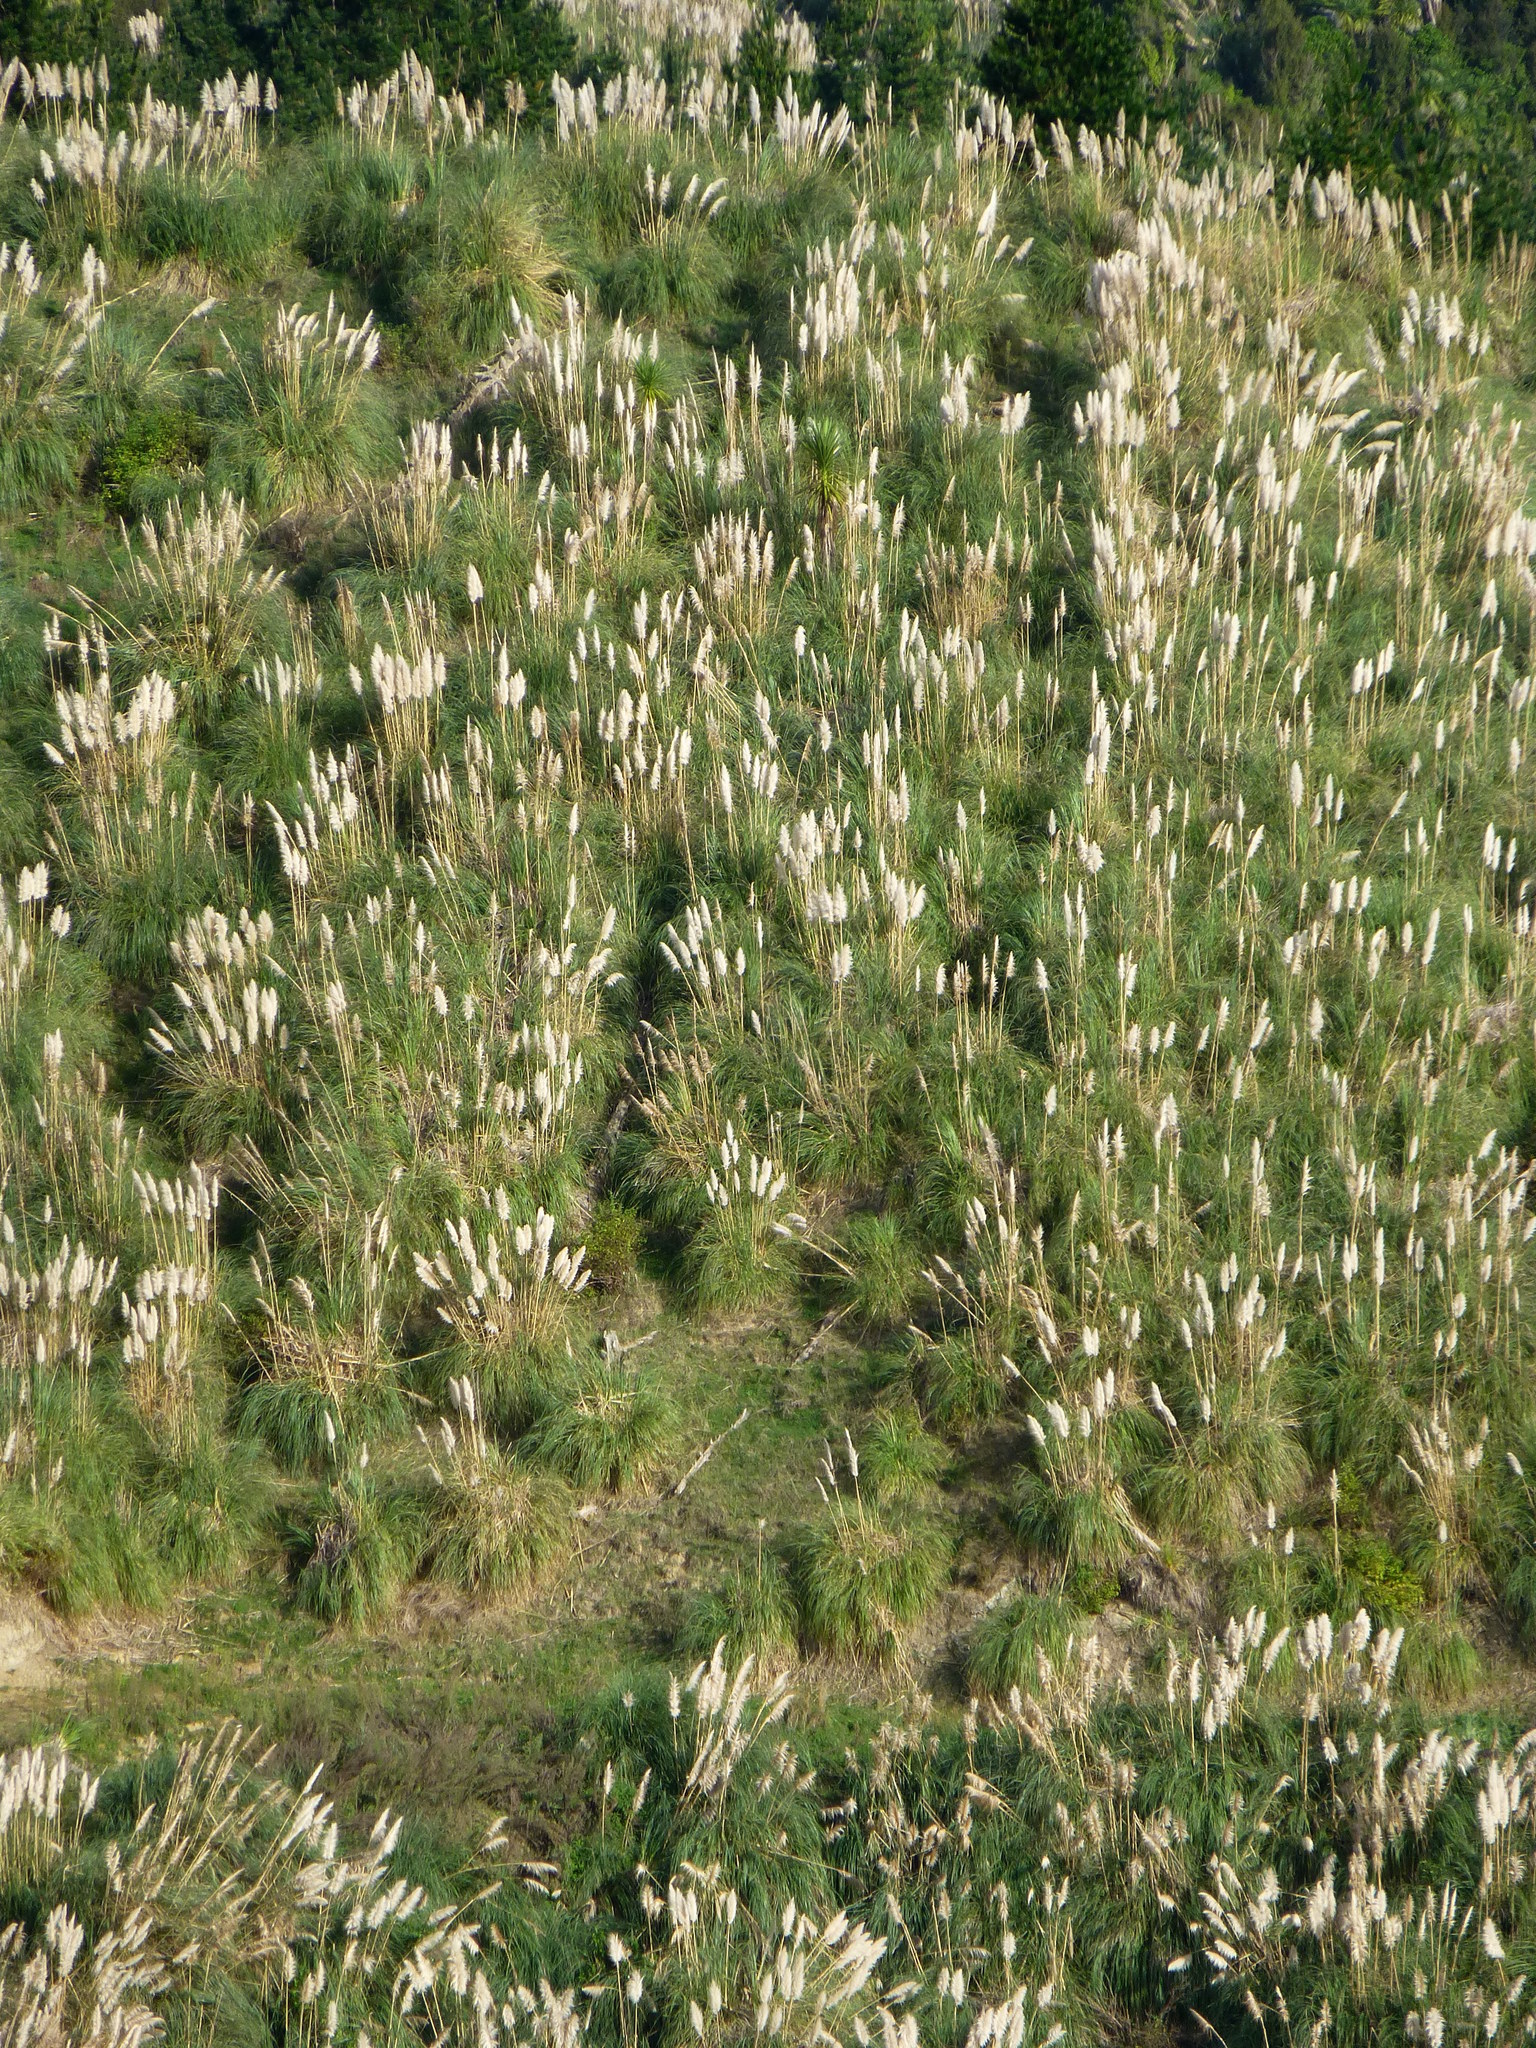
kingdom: Plantae
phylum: Tracheophyta
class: Liliopsida
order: Poales
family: Poaceae
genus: Cortaderia
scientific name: Cortaderia selloana
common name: Uruguayan pampas grass
